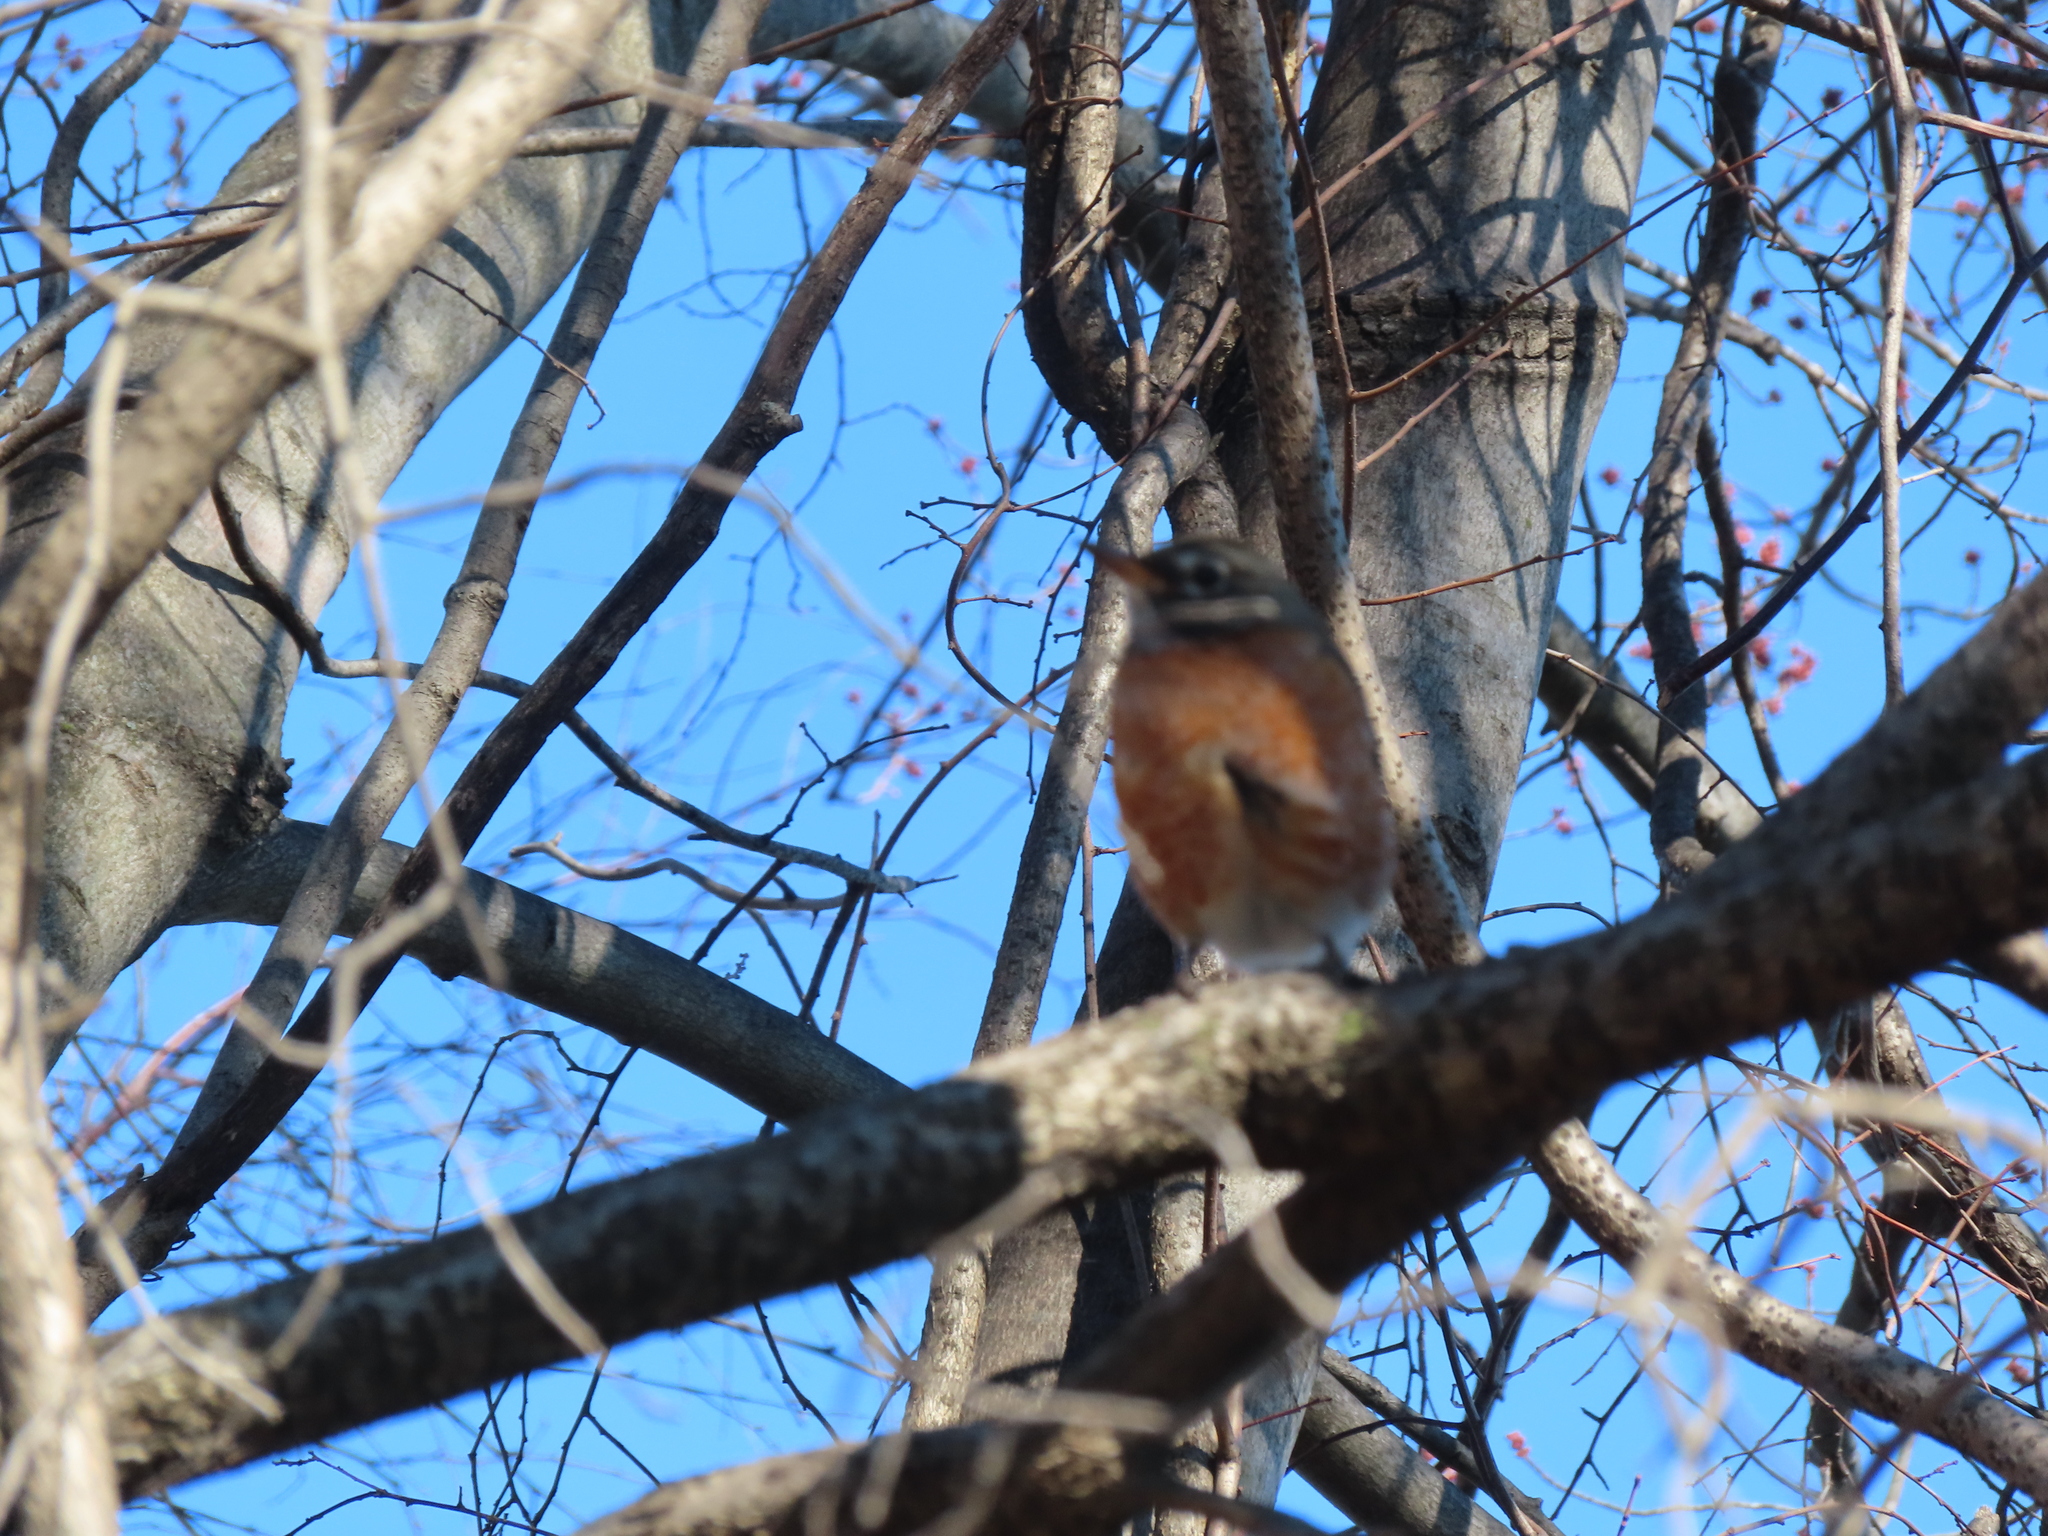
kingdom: Animalia
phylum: Chordata
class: Aves
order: Passeriformes
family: Turdidae
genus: Turdus
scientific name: Turdus migratorius
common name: American robin
